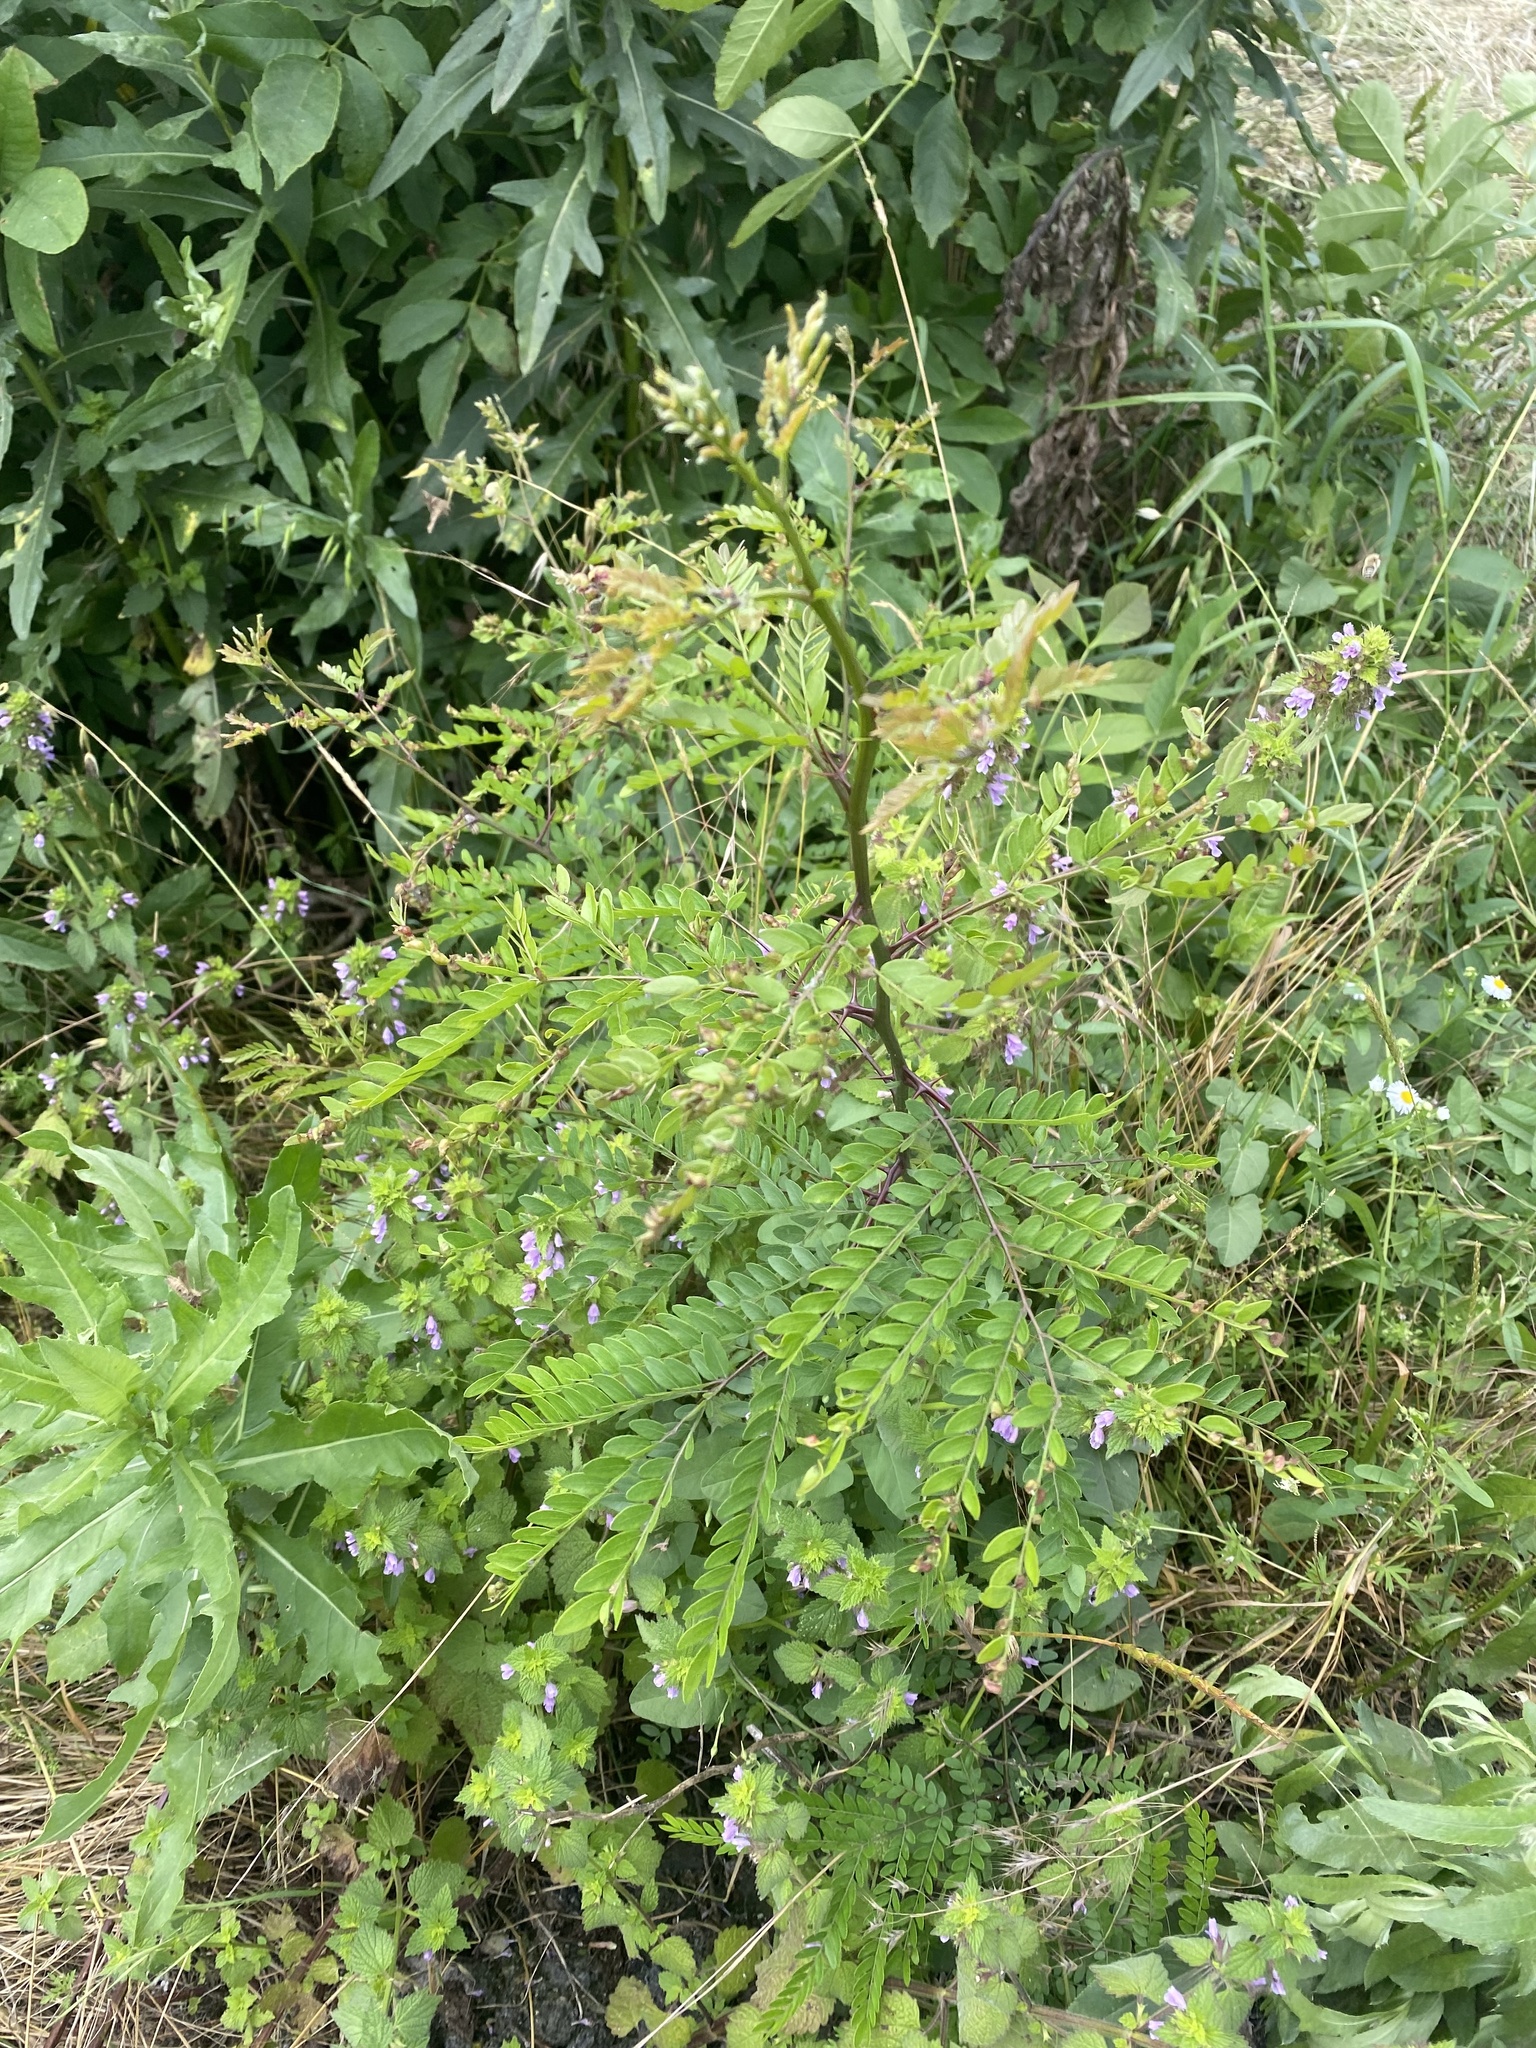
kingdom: Plantae
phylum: Tracheophyta
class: Magnoliopsida
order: Fabales
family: Fabaceae
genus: Gleditsia
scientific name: Gleditsia triacanthos
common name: Common honeylocust
